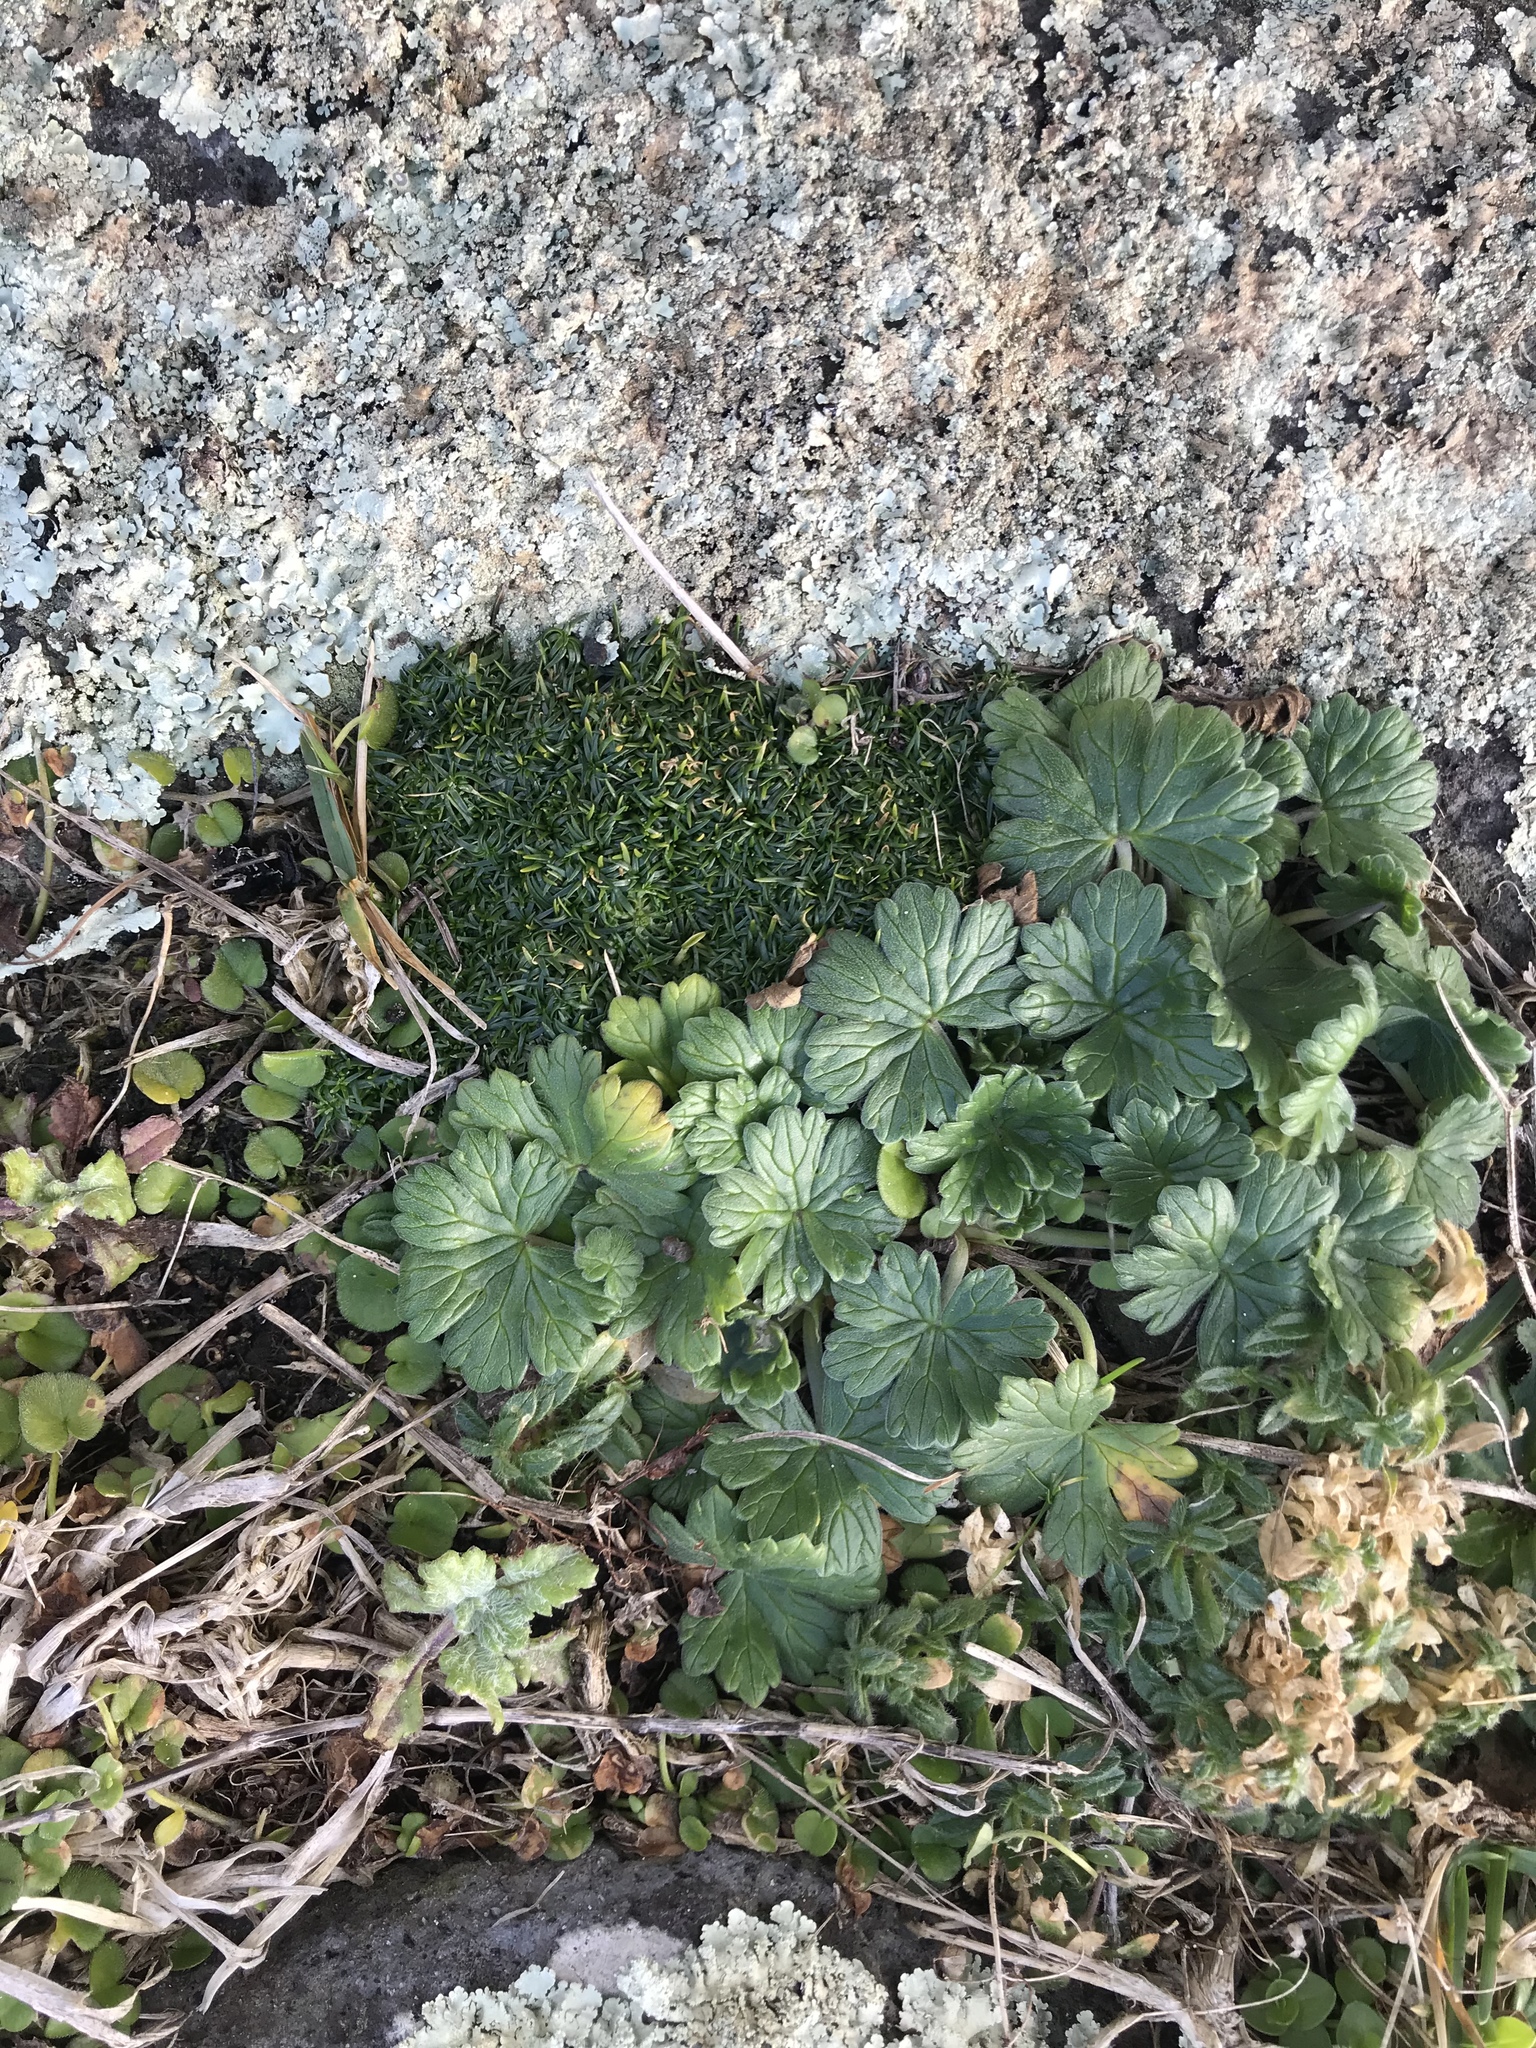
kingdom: Plantae
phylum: Tracheophyta
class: Magnoliopsida
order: Geraniales
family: Geraniaceae
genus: Geranium
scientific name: Geranium traversii
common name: Cranesbill
